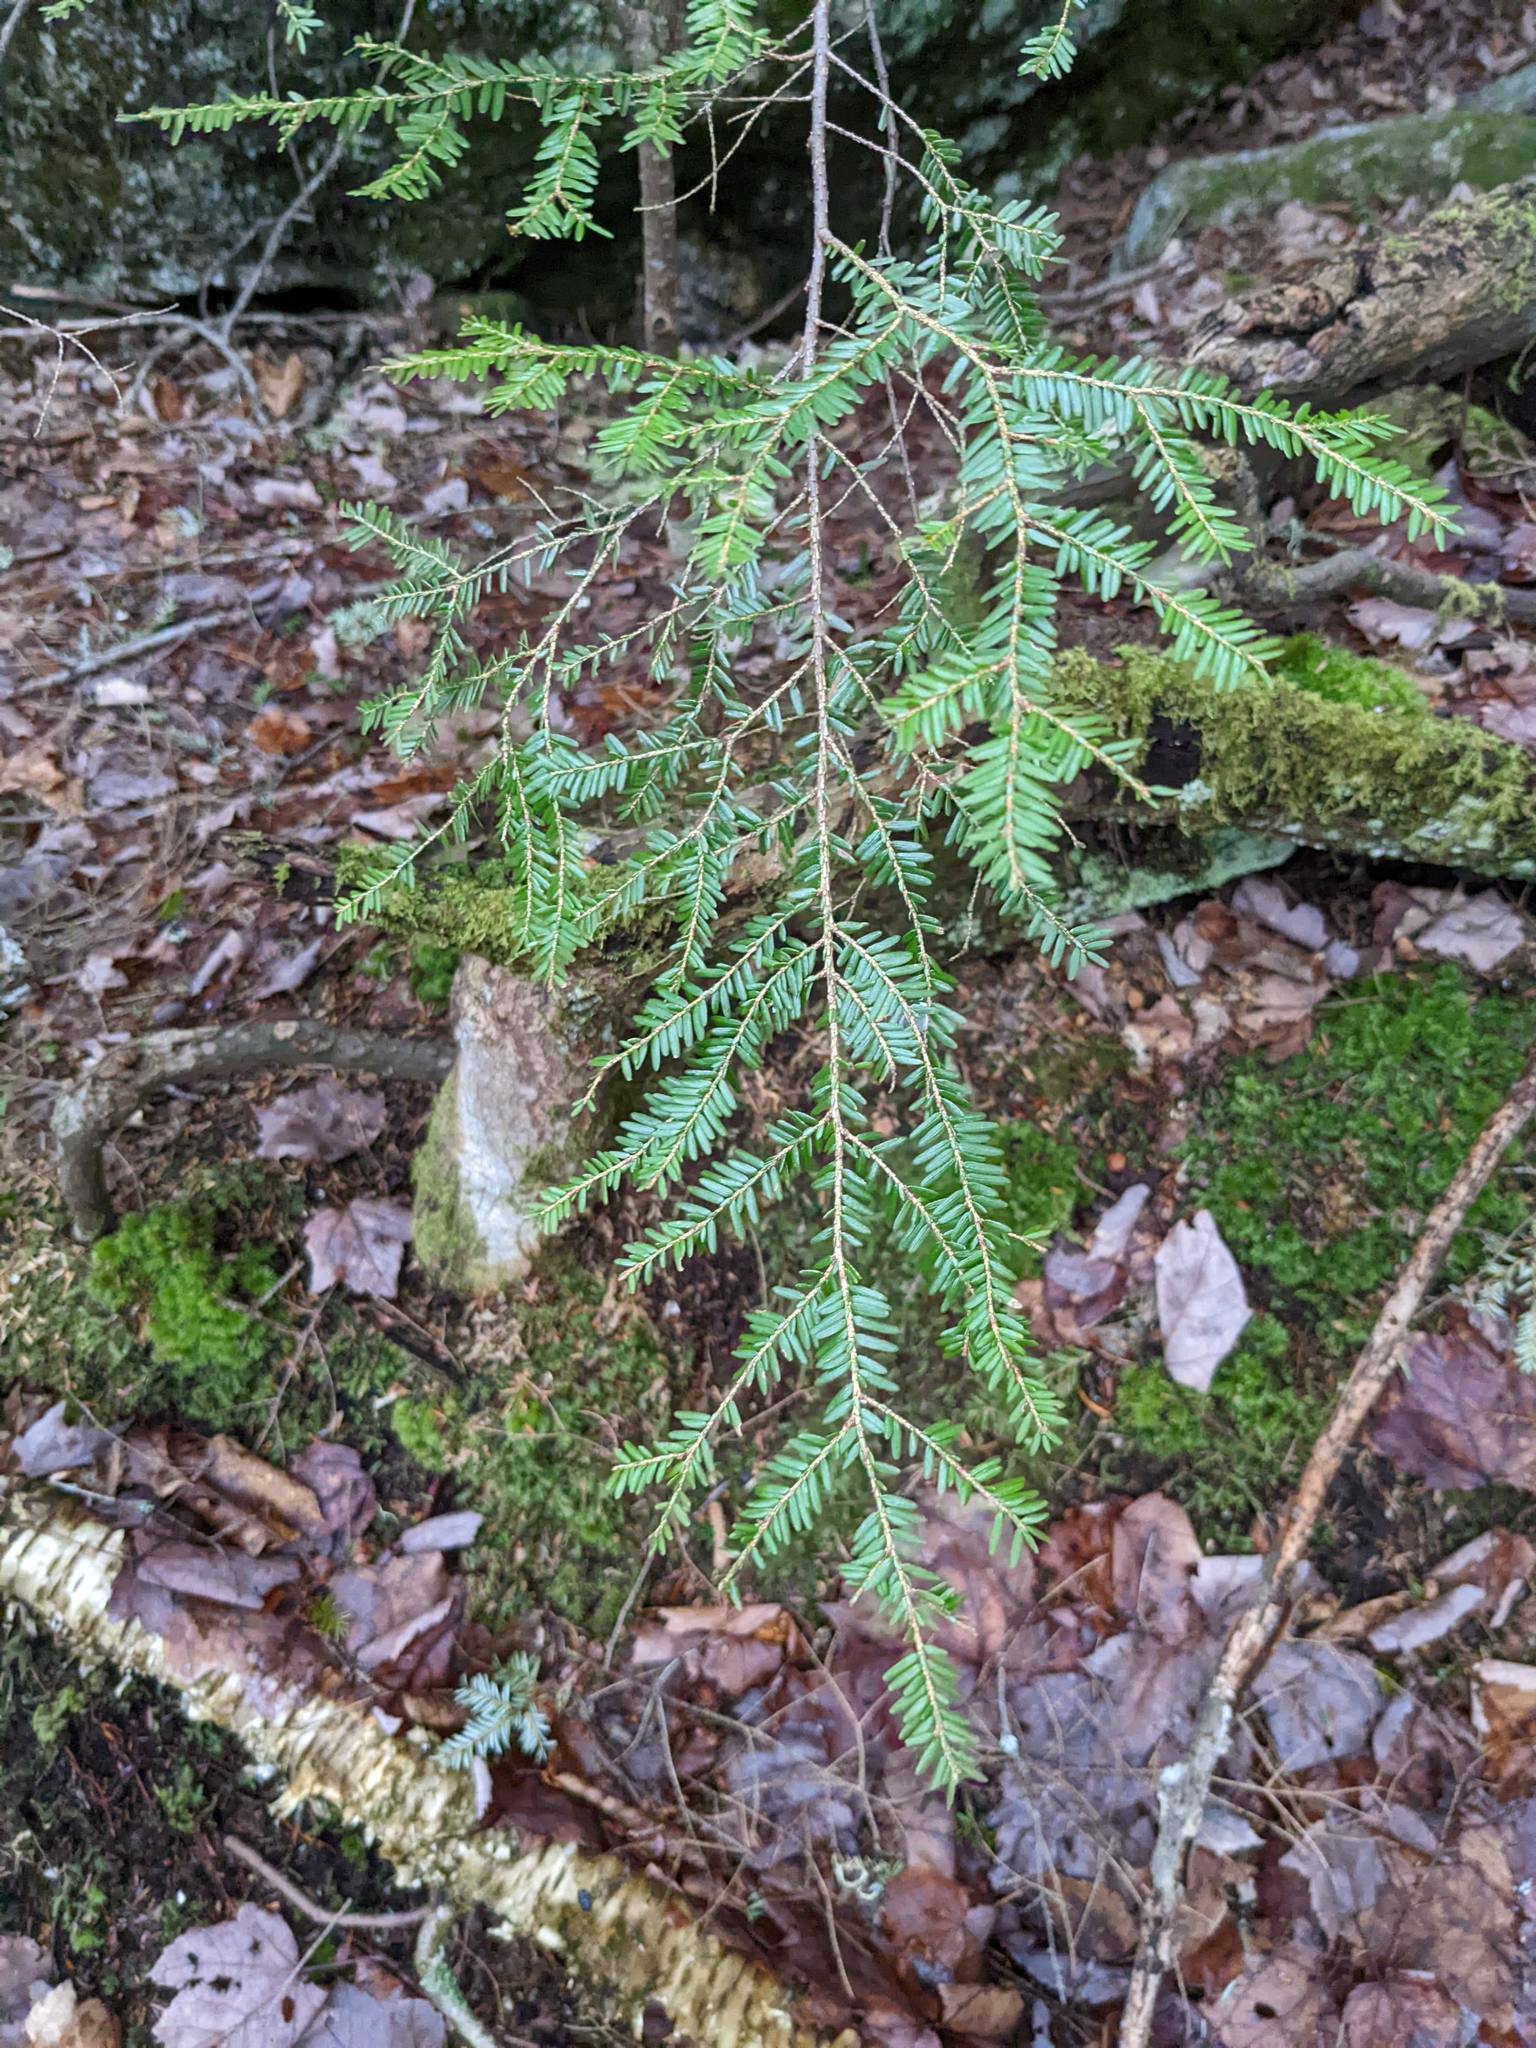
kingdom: Plantae
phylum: Tracheophyta
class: Pinopsida
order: Pinales
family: Pinaceae
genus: Tsuga
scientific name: Tsuga canadensis
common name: Eastern hemlock
